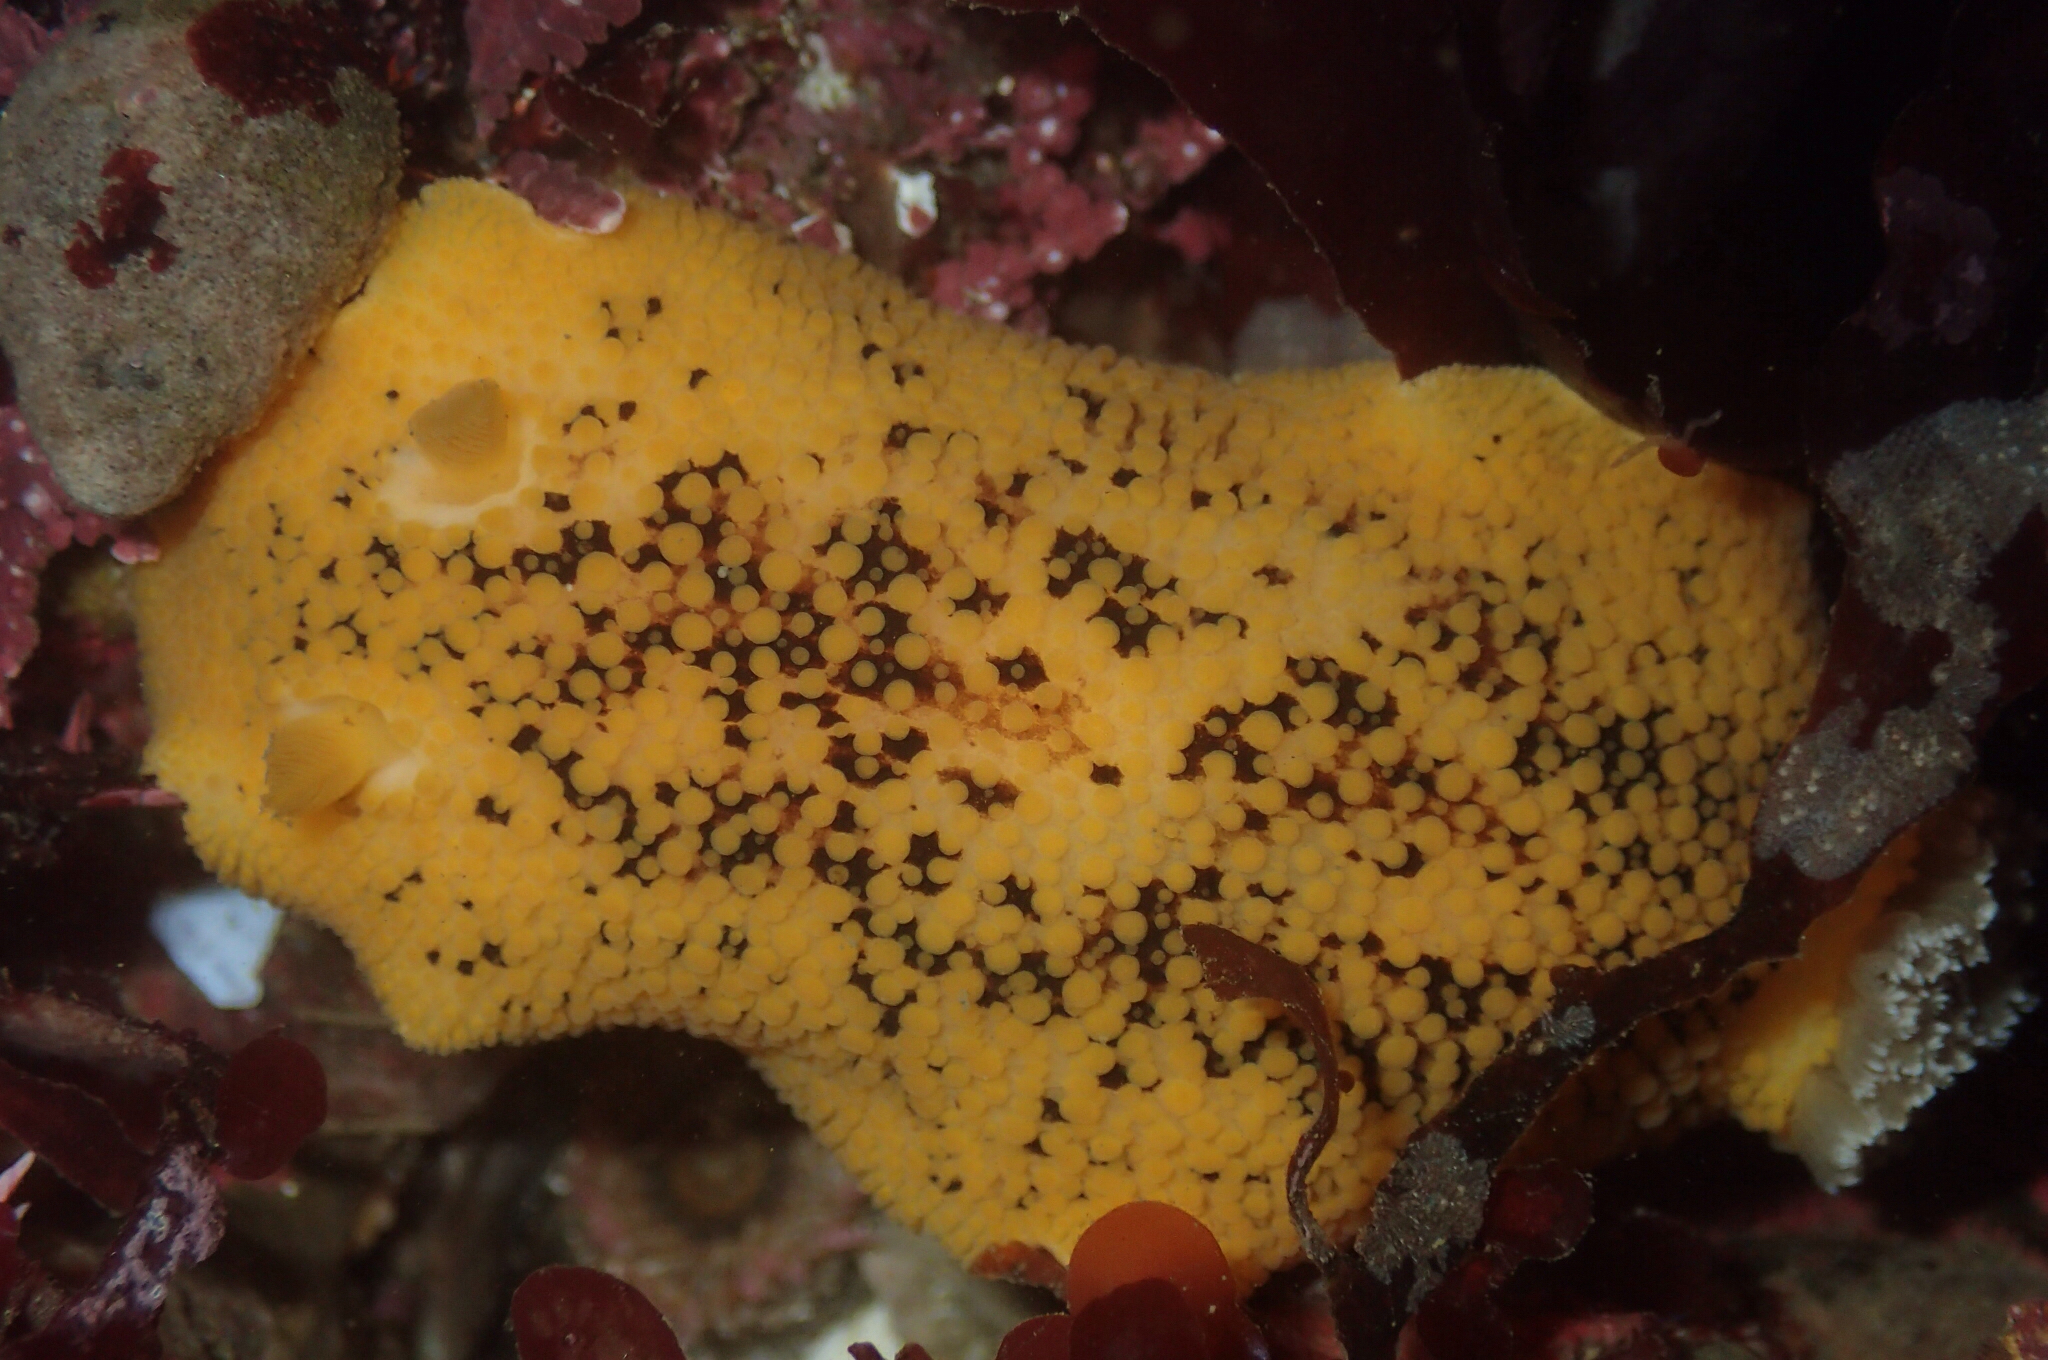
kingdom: Animalia
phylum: Mollusca
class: Gastropoda
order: Nudibranchia
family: Discodorididae
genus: Peltodoris
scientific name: Peltodoris nobilis
